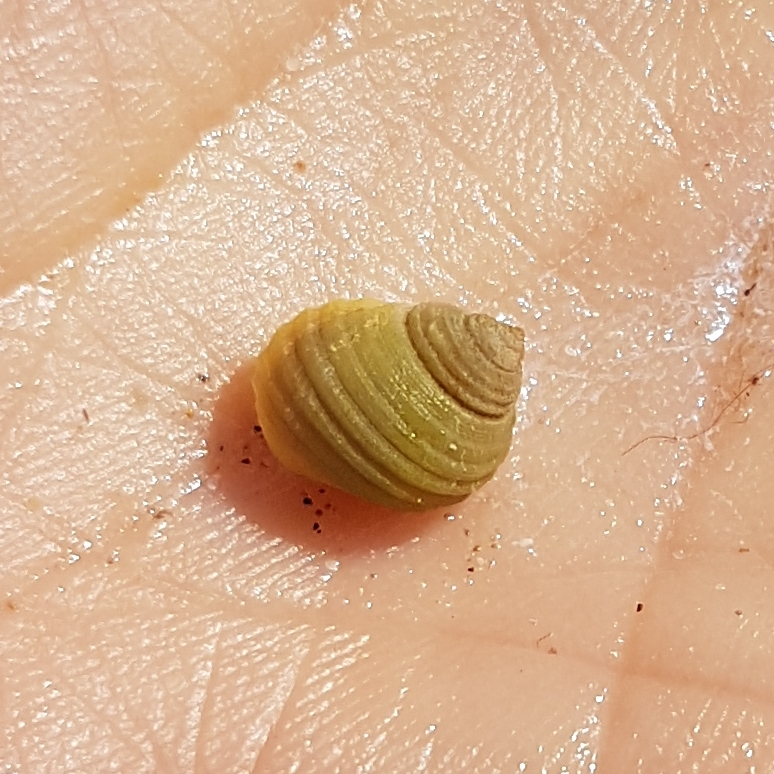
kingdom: Animalia
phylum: Mollusca
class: Gastropoda
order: Littorinimorpha
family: Littorinidae
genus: Littorina
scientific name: Littorina saxatilis
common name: Black-lined periwinkle
